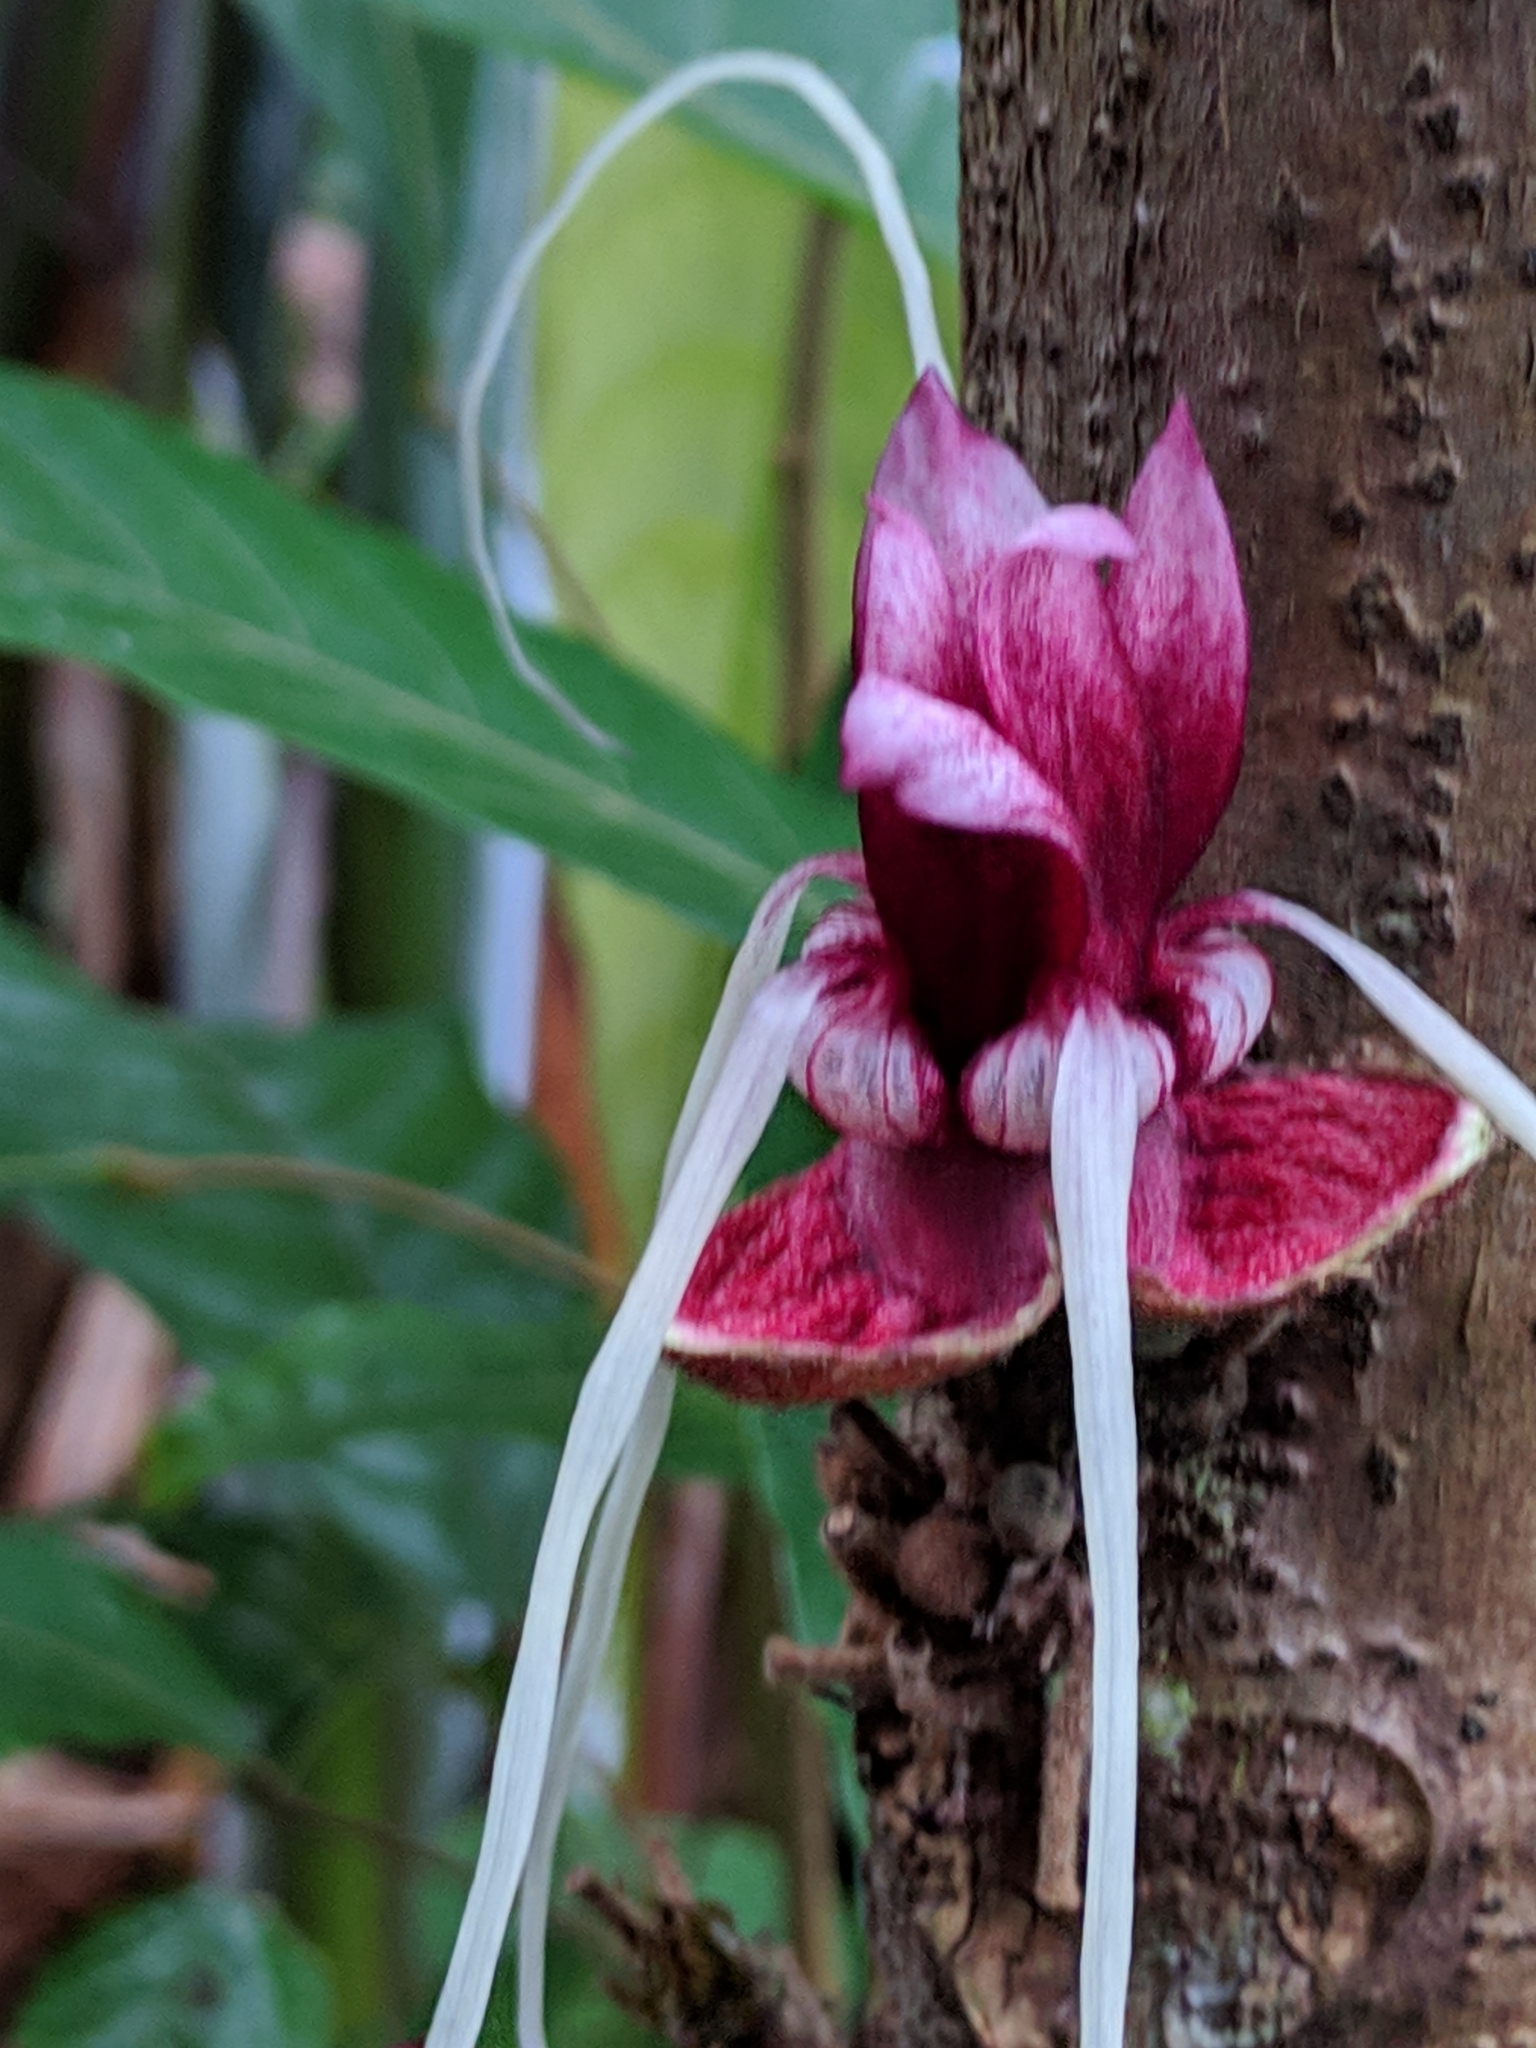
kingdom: Plantae
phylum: Tracheophyta
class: Magnoliopsida
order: Malvales
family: Malvaceae
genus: Herrania
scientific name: Herrania
